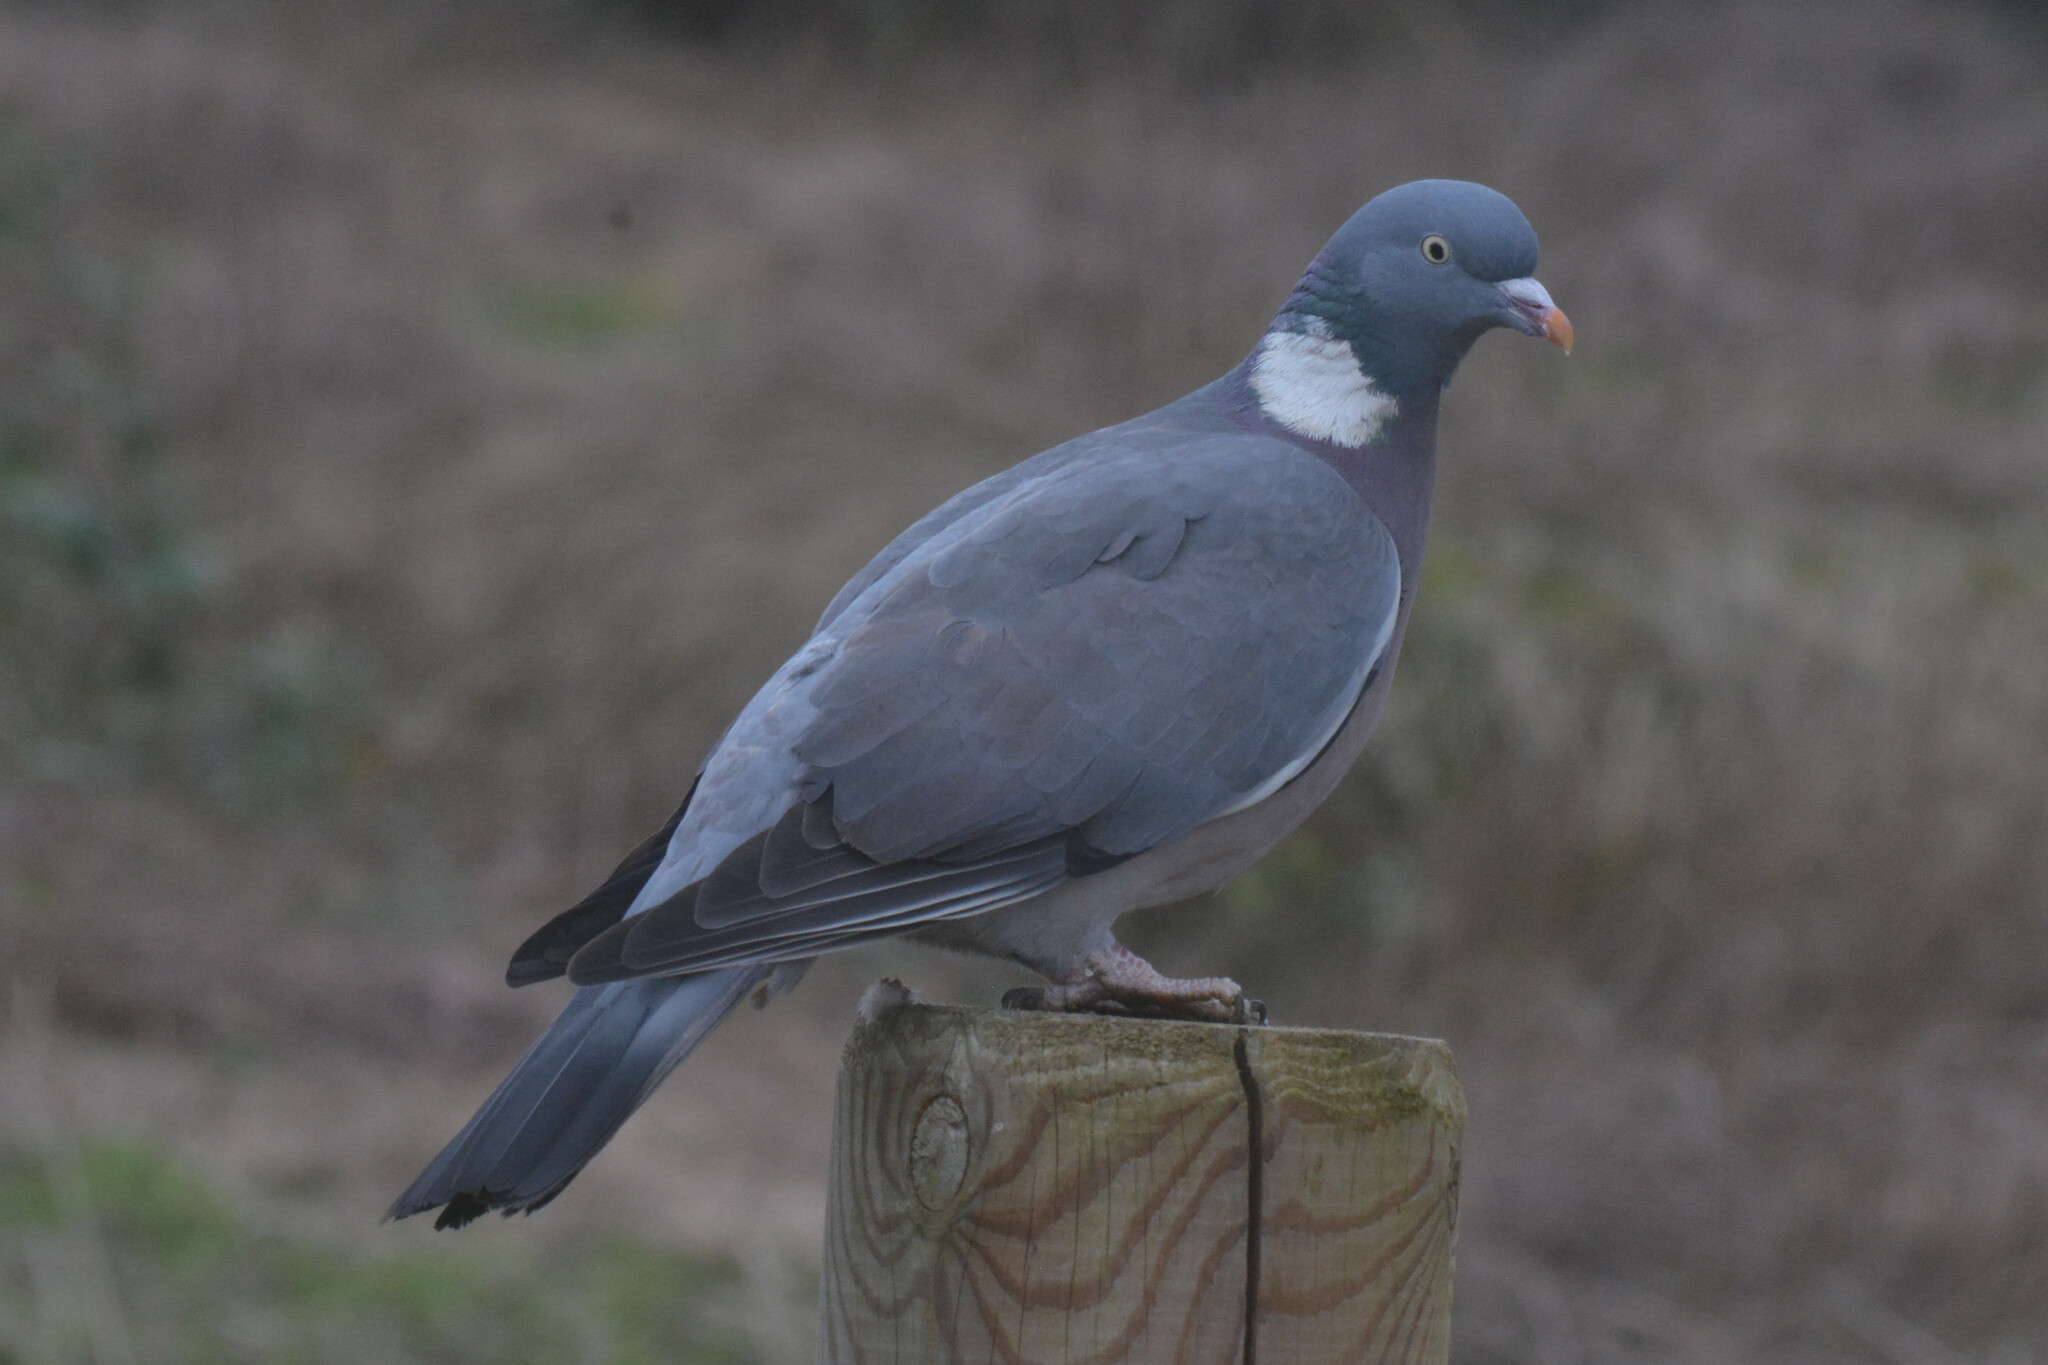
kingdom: Animalia
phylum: Chordata
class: Aves
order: Columbiformes
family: Columbidae
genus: Columba
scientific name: Columba palumbus
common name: Common wood pigeon
